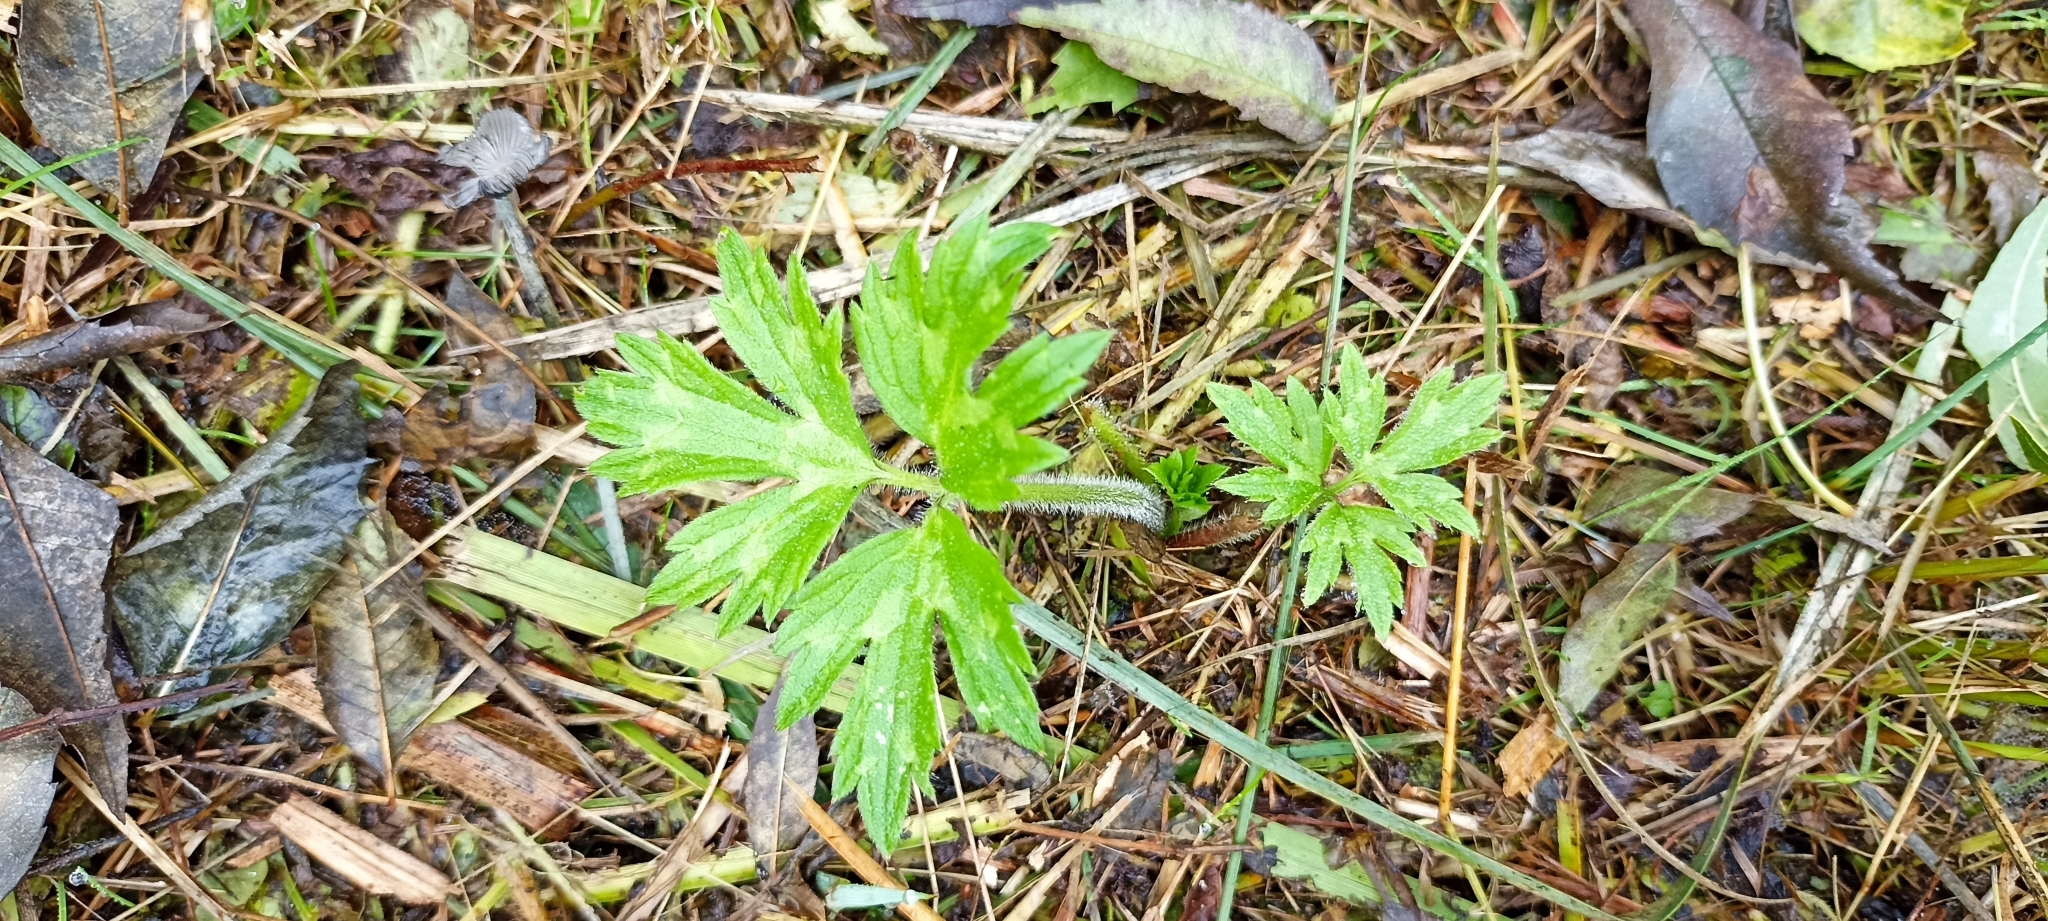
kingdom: Plantae
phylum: Tracheophyta
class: Magnoliopsida
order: Ranunculales
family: Ranunculaceae
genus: Ranunculus
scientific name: Ranunculus repens
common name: Creeping buttercup
